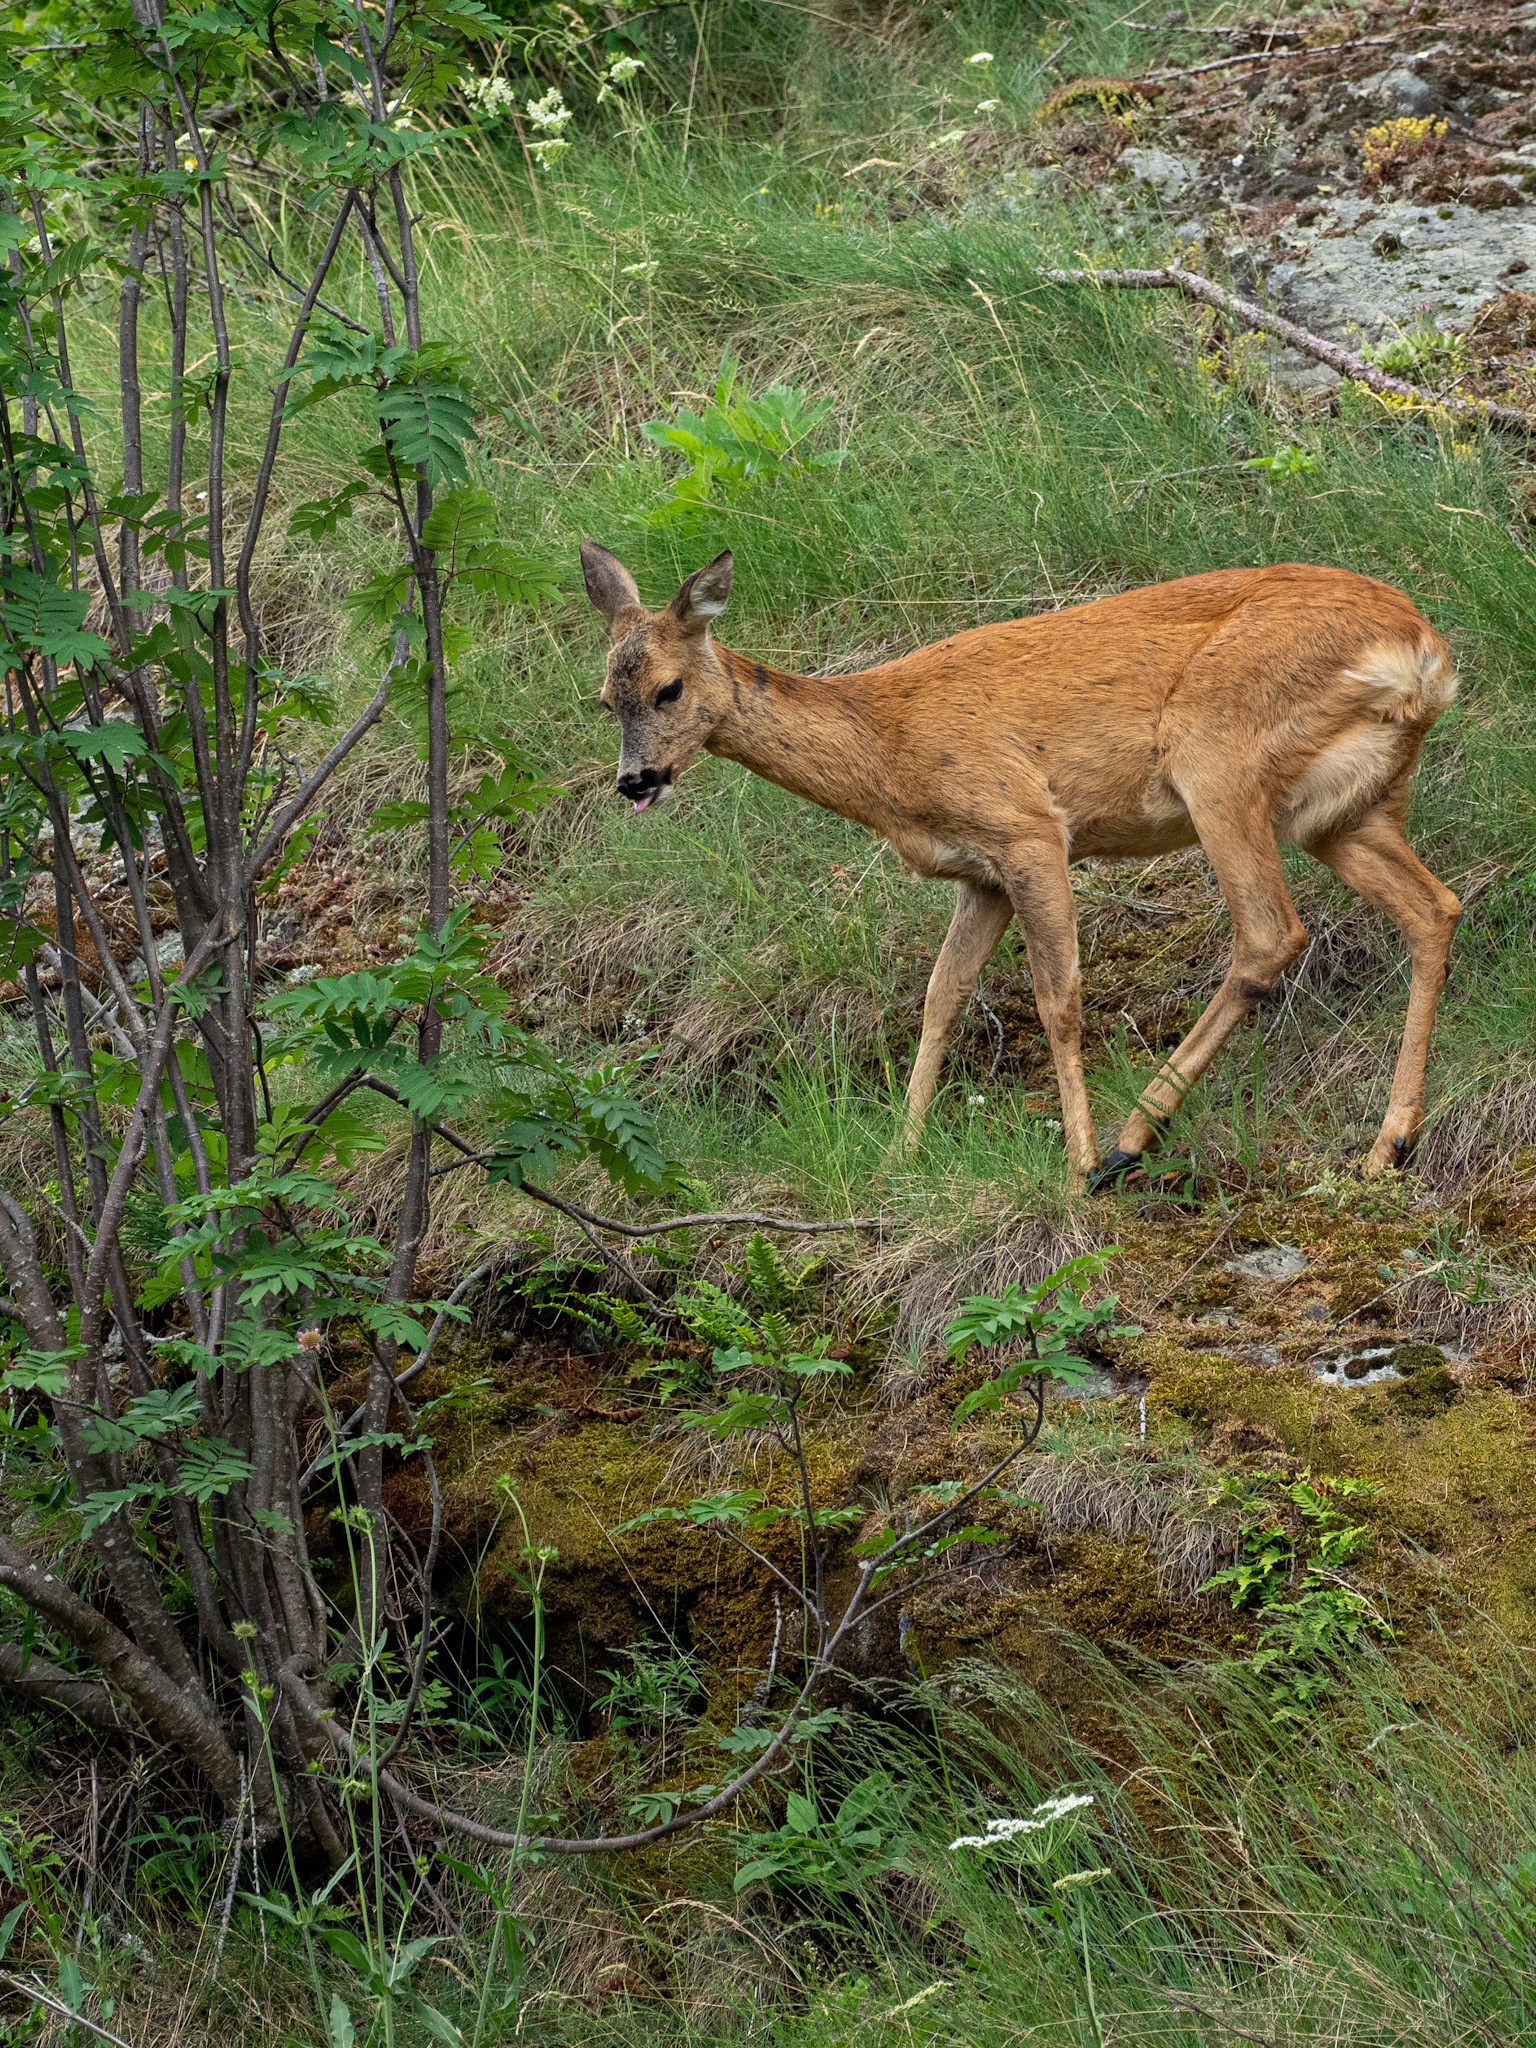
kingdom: Animalia
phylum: Chordata
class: Mammalia
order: Artiodactyla
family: Cervidae
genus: Capreolus
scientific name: Capreolus capreolus
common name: Western roe deer
